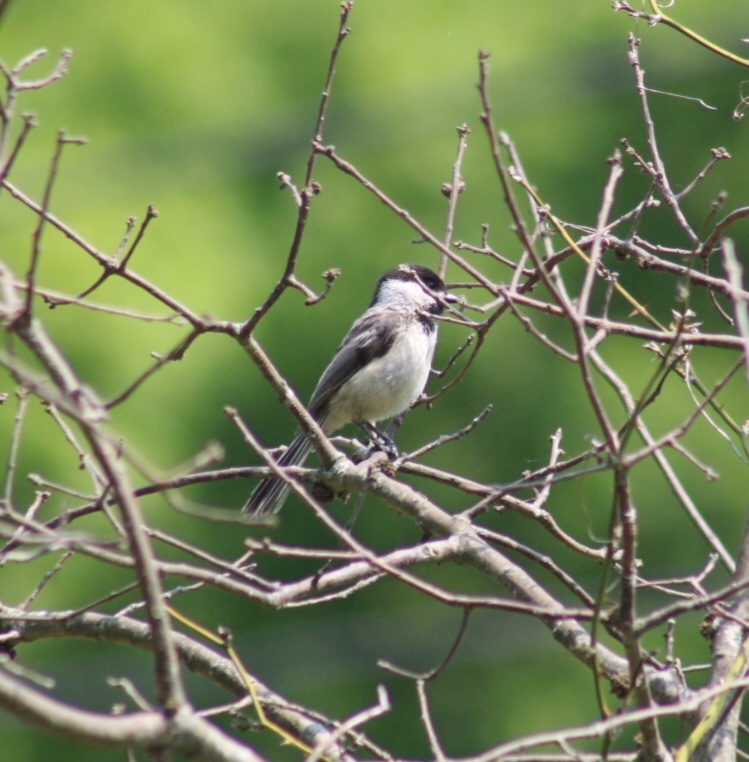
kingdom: Animalia
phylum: Chordata
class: Aves
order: Passeriformes
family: Paridae
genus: Poecile
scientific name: Poecile atricapillus
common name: Black-capped chickadee
